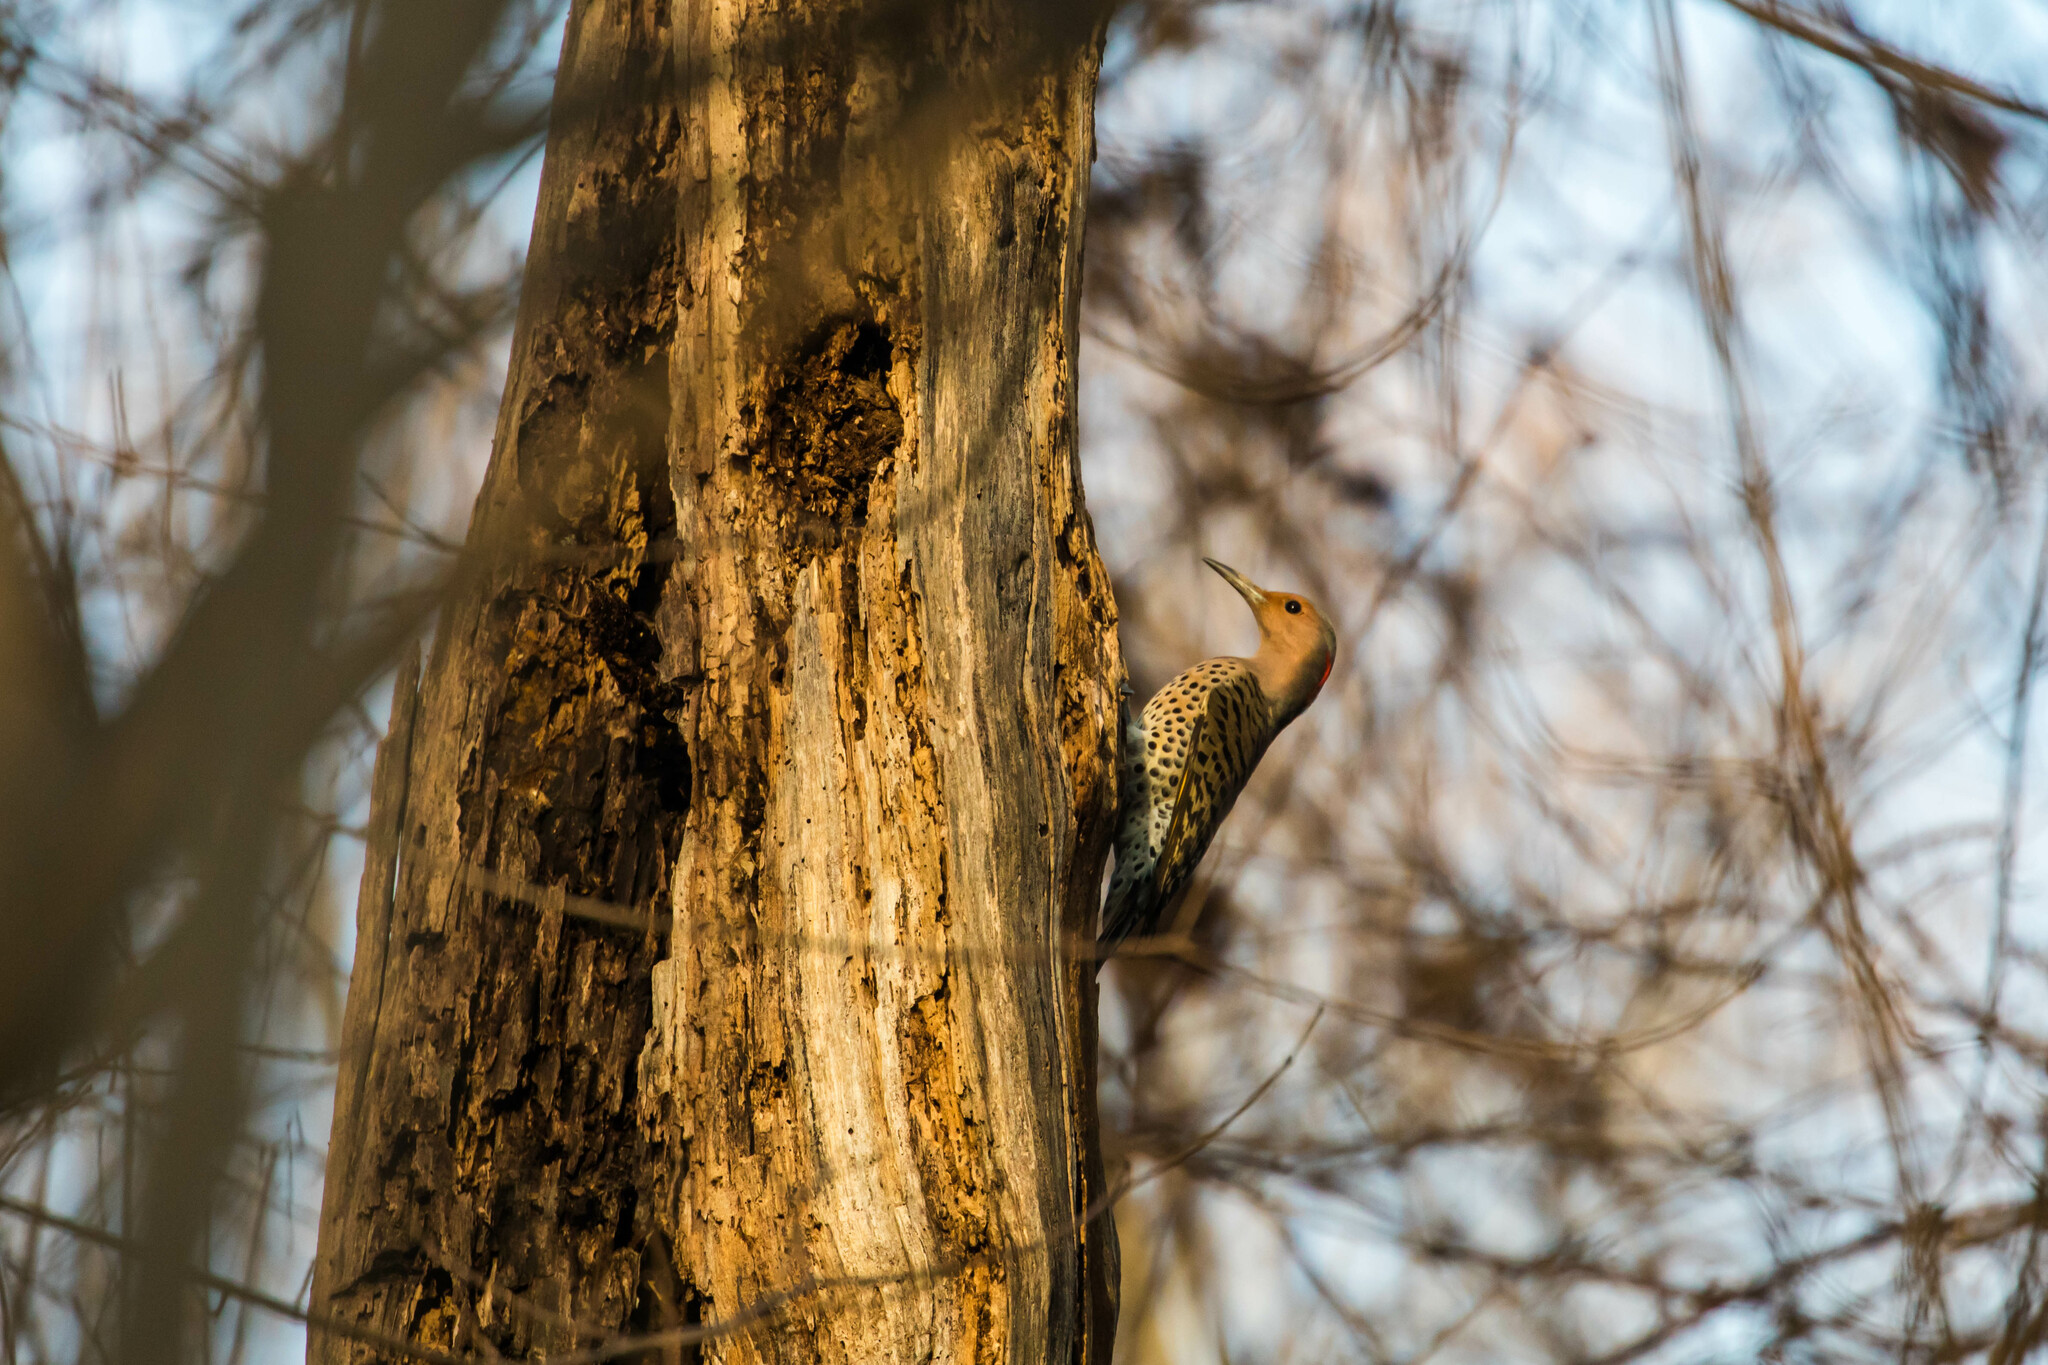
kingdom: Animalia
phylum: Chordata
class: Aves
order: Piciformes
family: Picidae
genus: Colaptes
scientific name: Colaptes auratus
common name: Northern flicker
